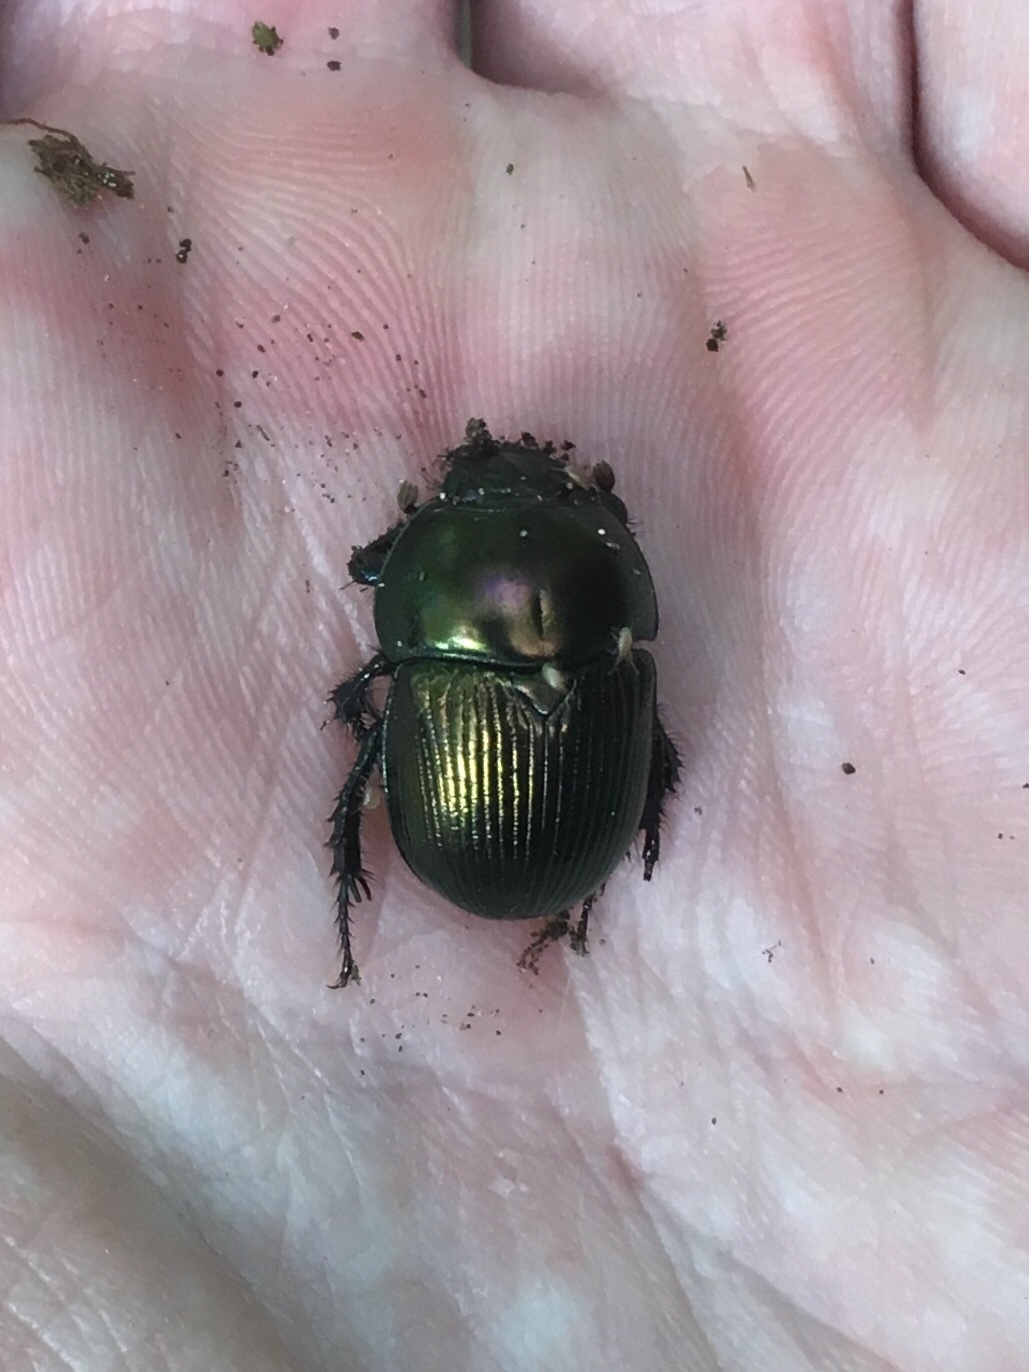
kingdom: Animalia
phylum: Arthropoda
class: Insecta
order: Coleoptera
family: Geotrupidae
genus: Geotrupes
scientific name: Geotrupes splendidus
